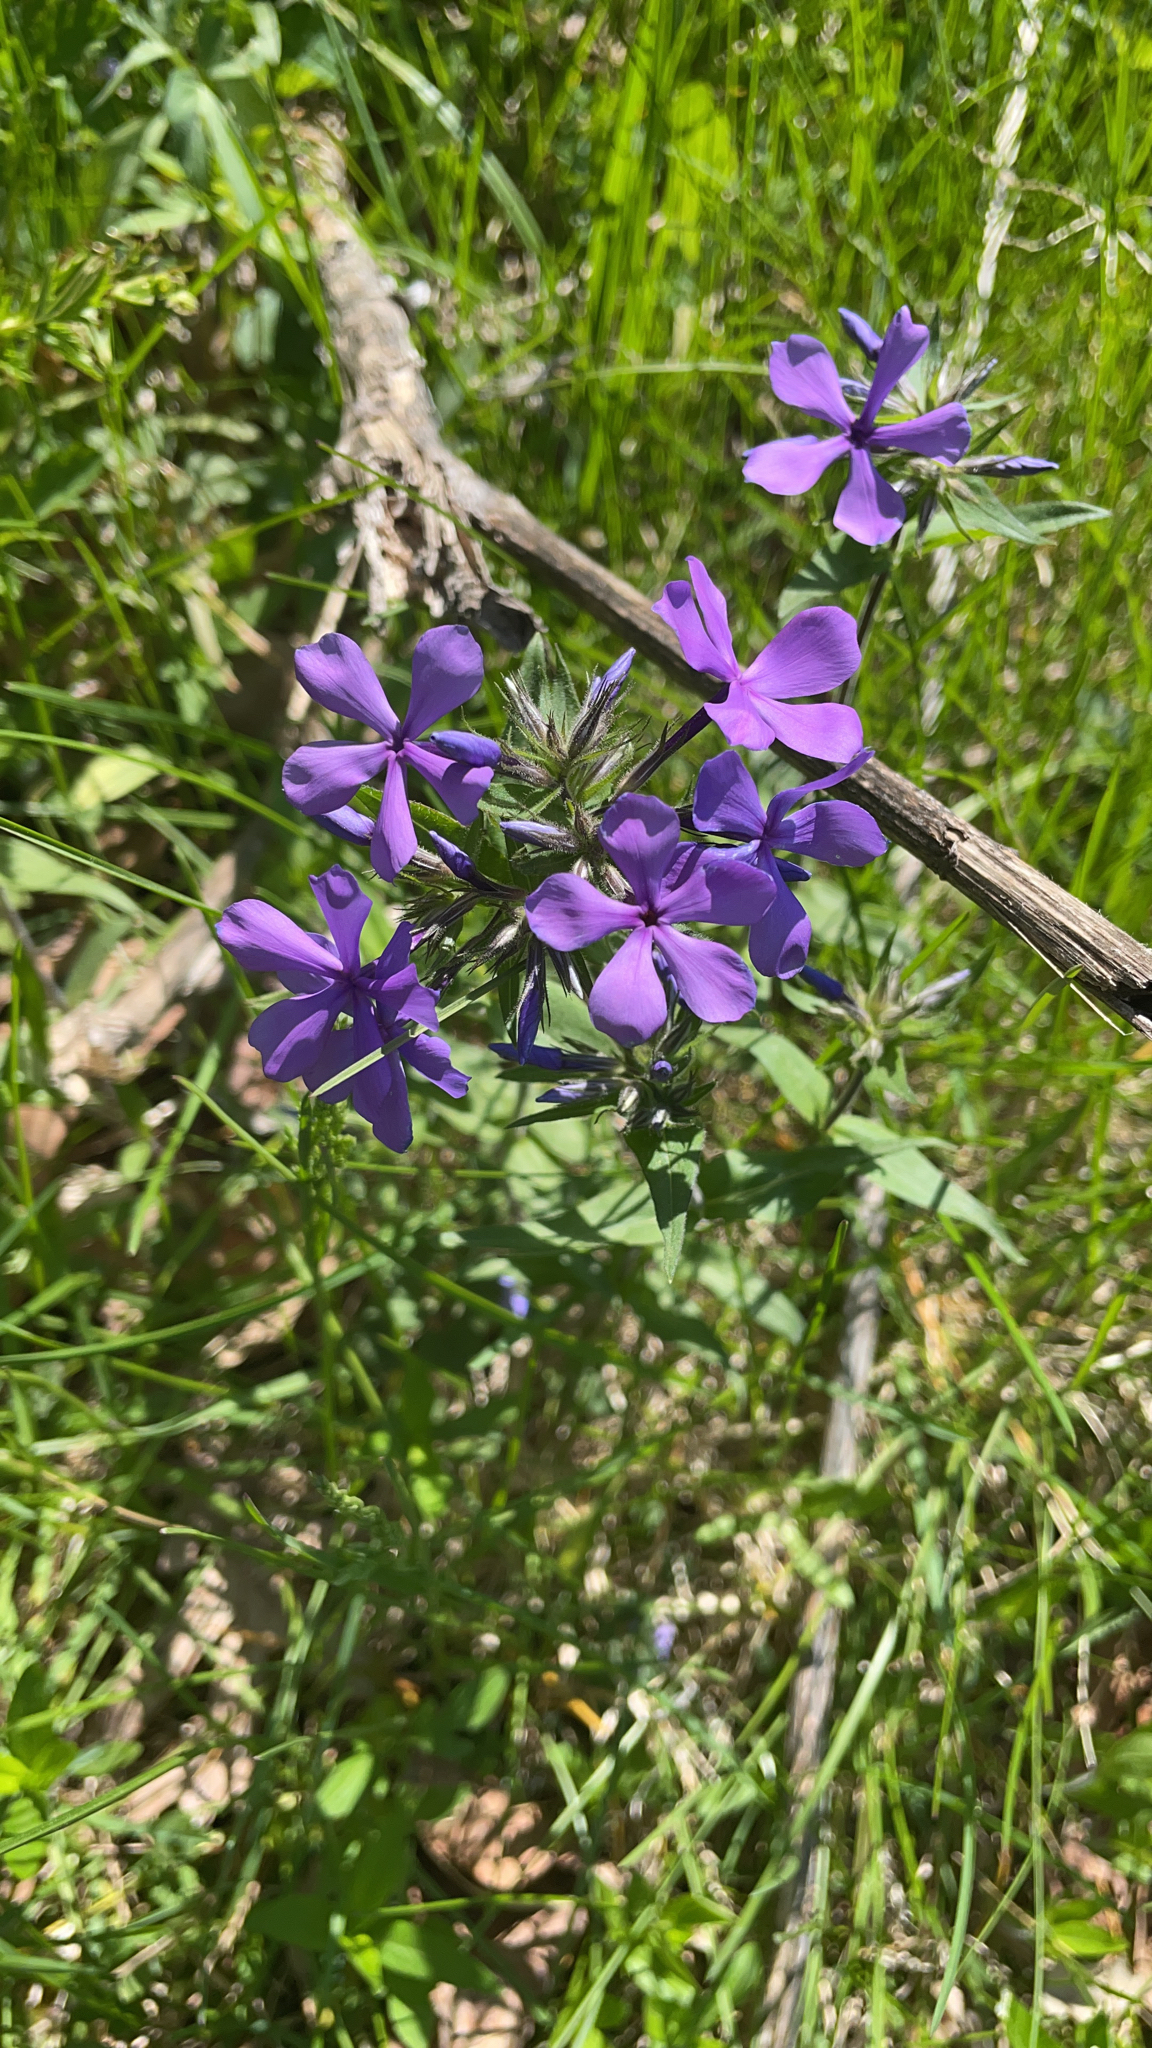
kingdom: Plantae
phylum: Tracheophyta
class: Magnoliopsida
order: Ericales
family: Polemoniaceae
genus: Phlox
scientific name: Phlox divaricata
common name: Blue phlox
